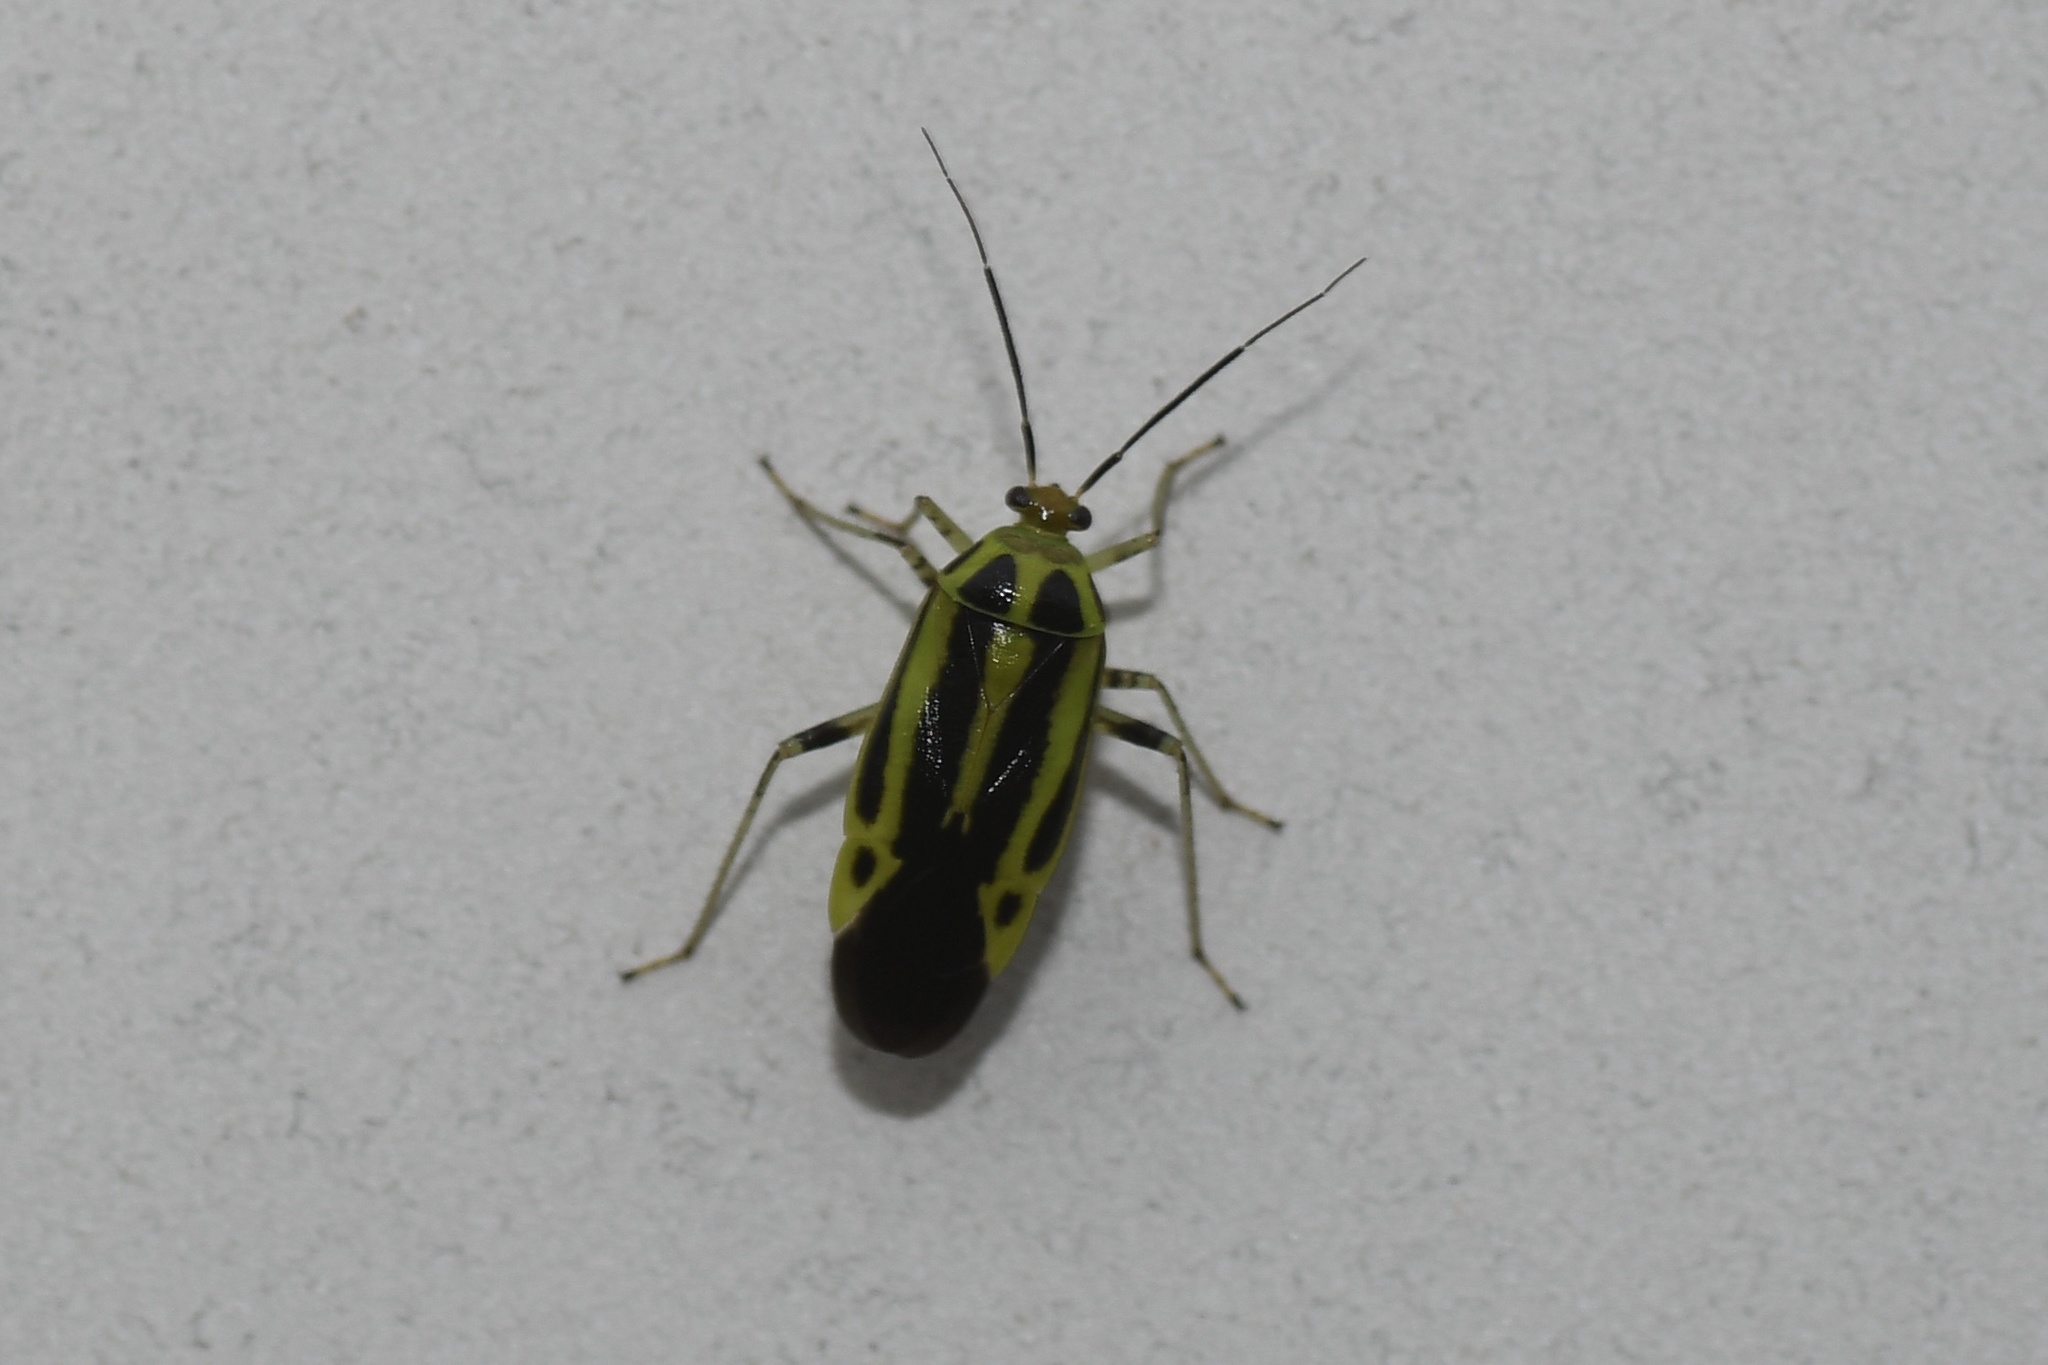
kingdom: Animalia
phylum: Arthropoda
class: Insecta
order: Hemiptera
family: Miridae
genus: Poecilocapsus
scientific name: Poecilocapsus lineatus
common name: Four-lined plant bug
